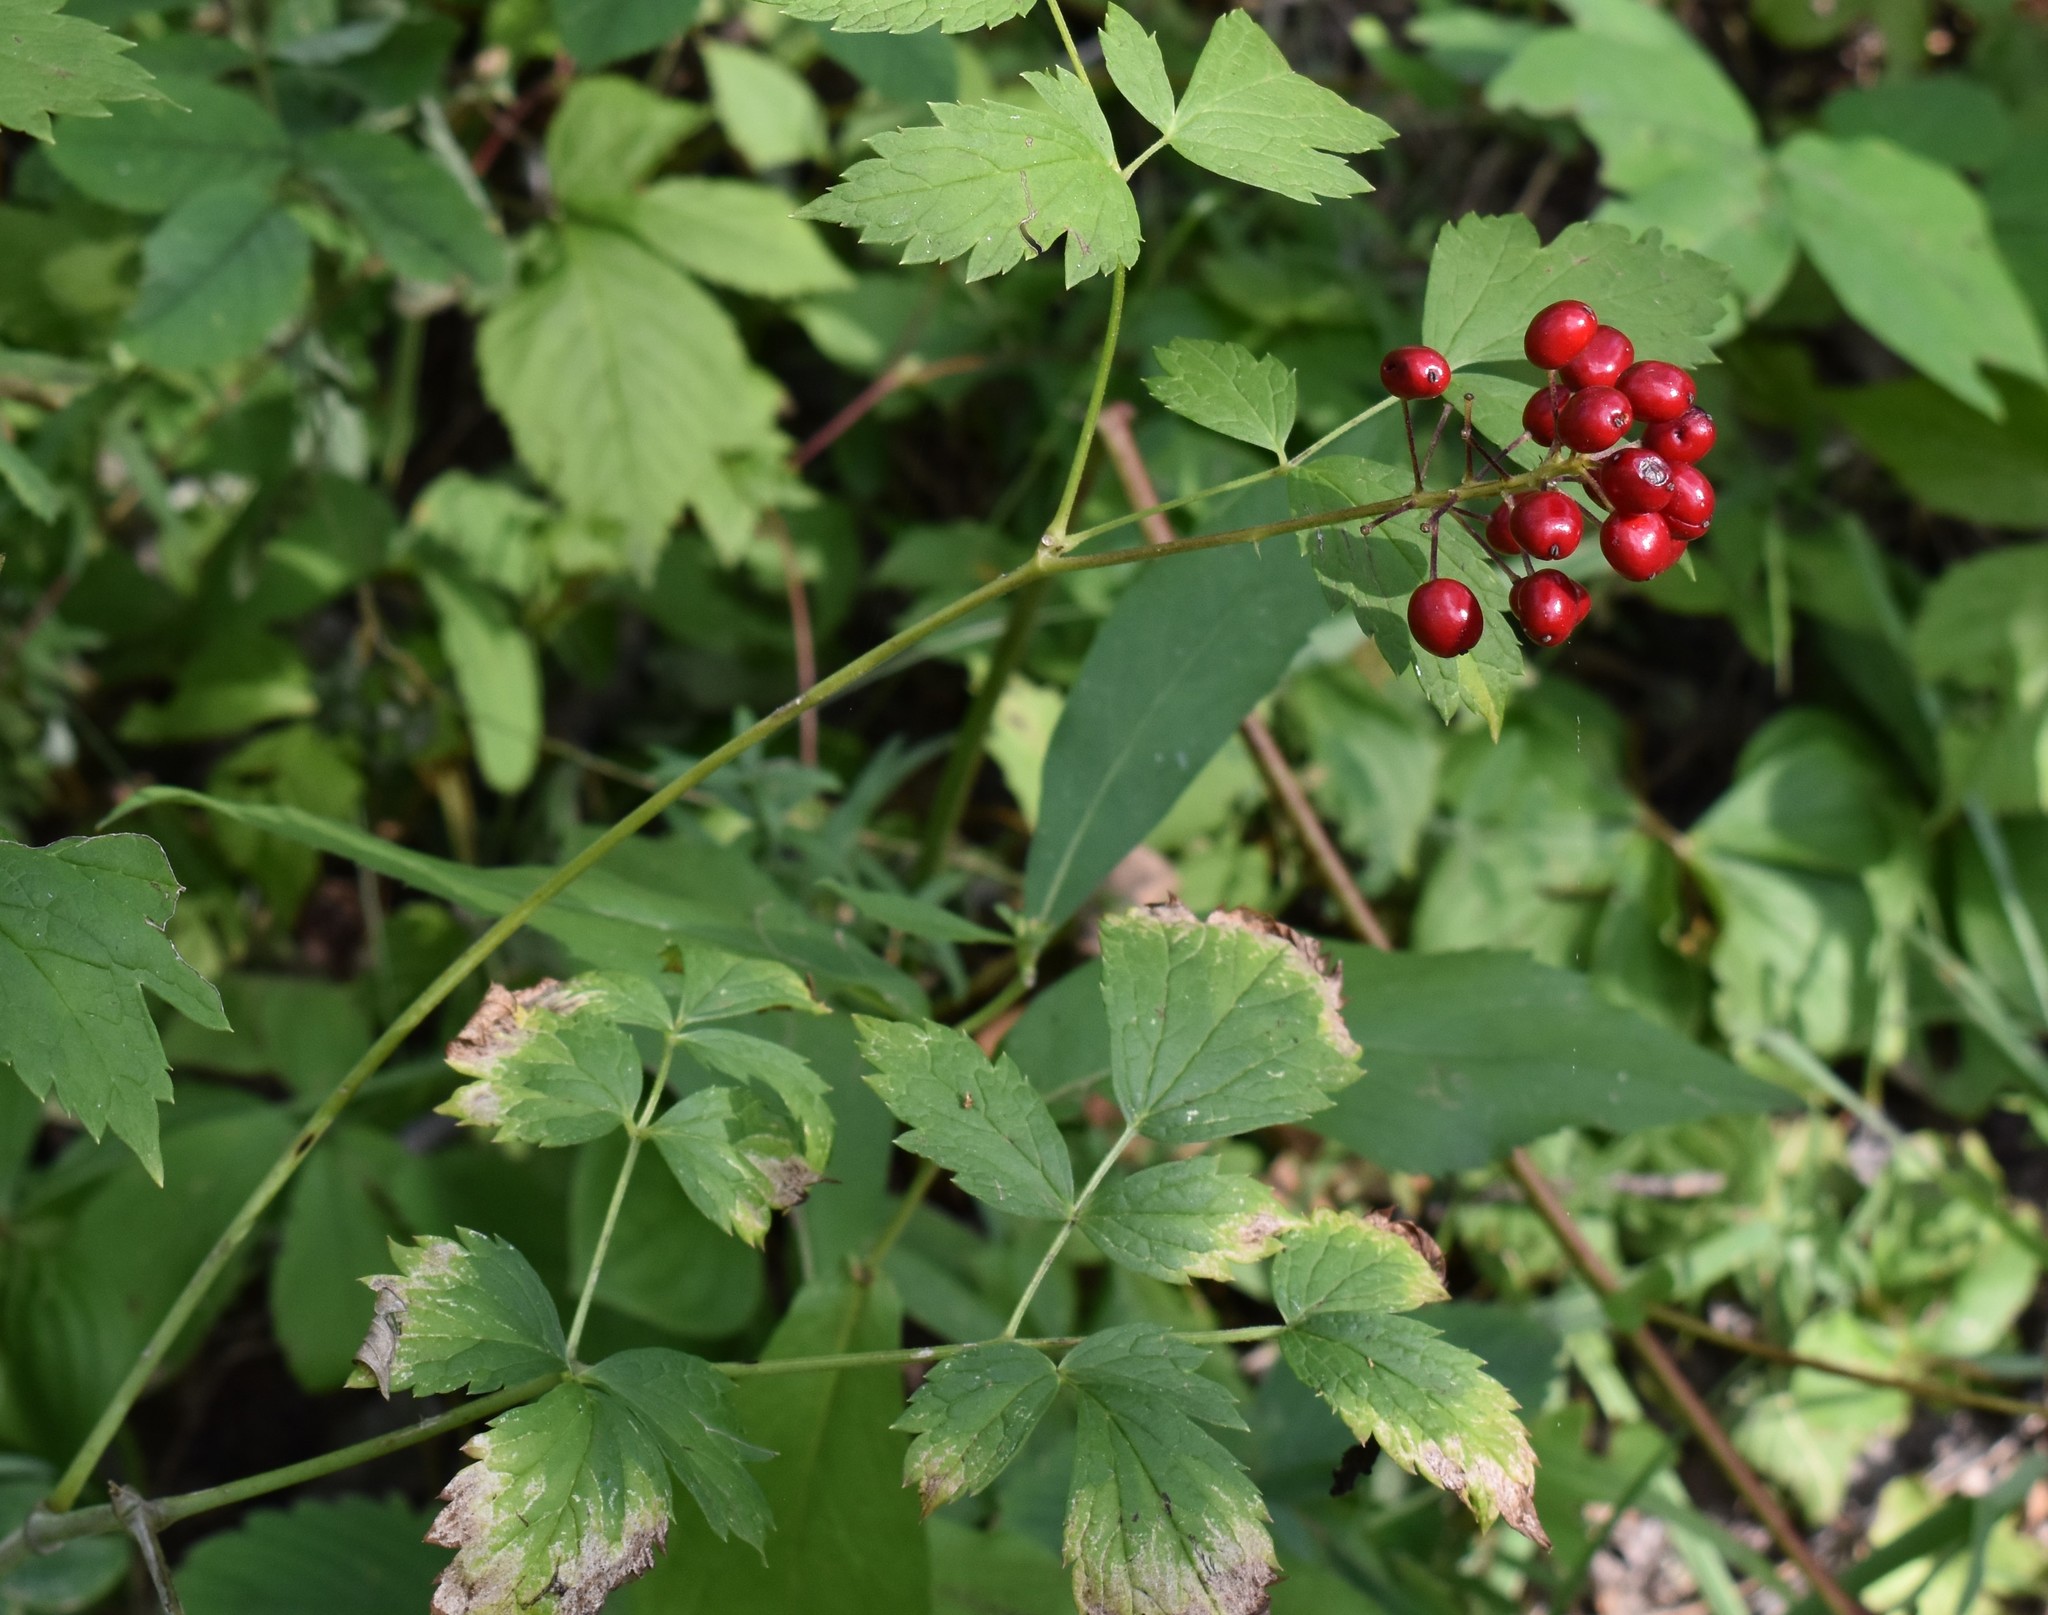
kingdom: Plantae
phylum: Tracheophyta
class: Magnoliopsida
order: Ranunculales
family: Ranunculaceae
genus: Actaea
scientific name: Actaea rubra
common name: Red baneberry
